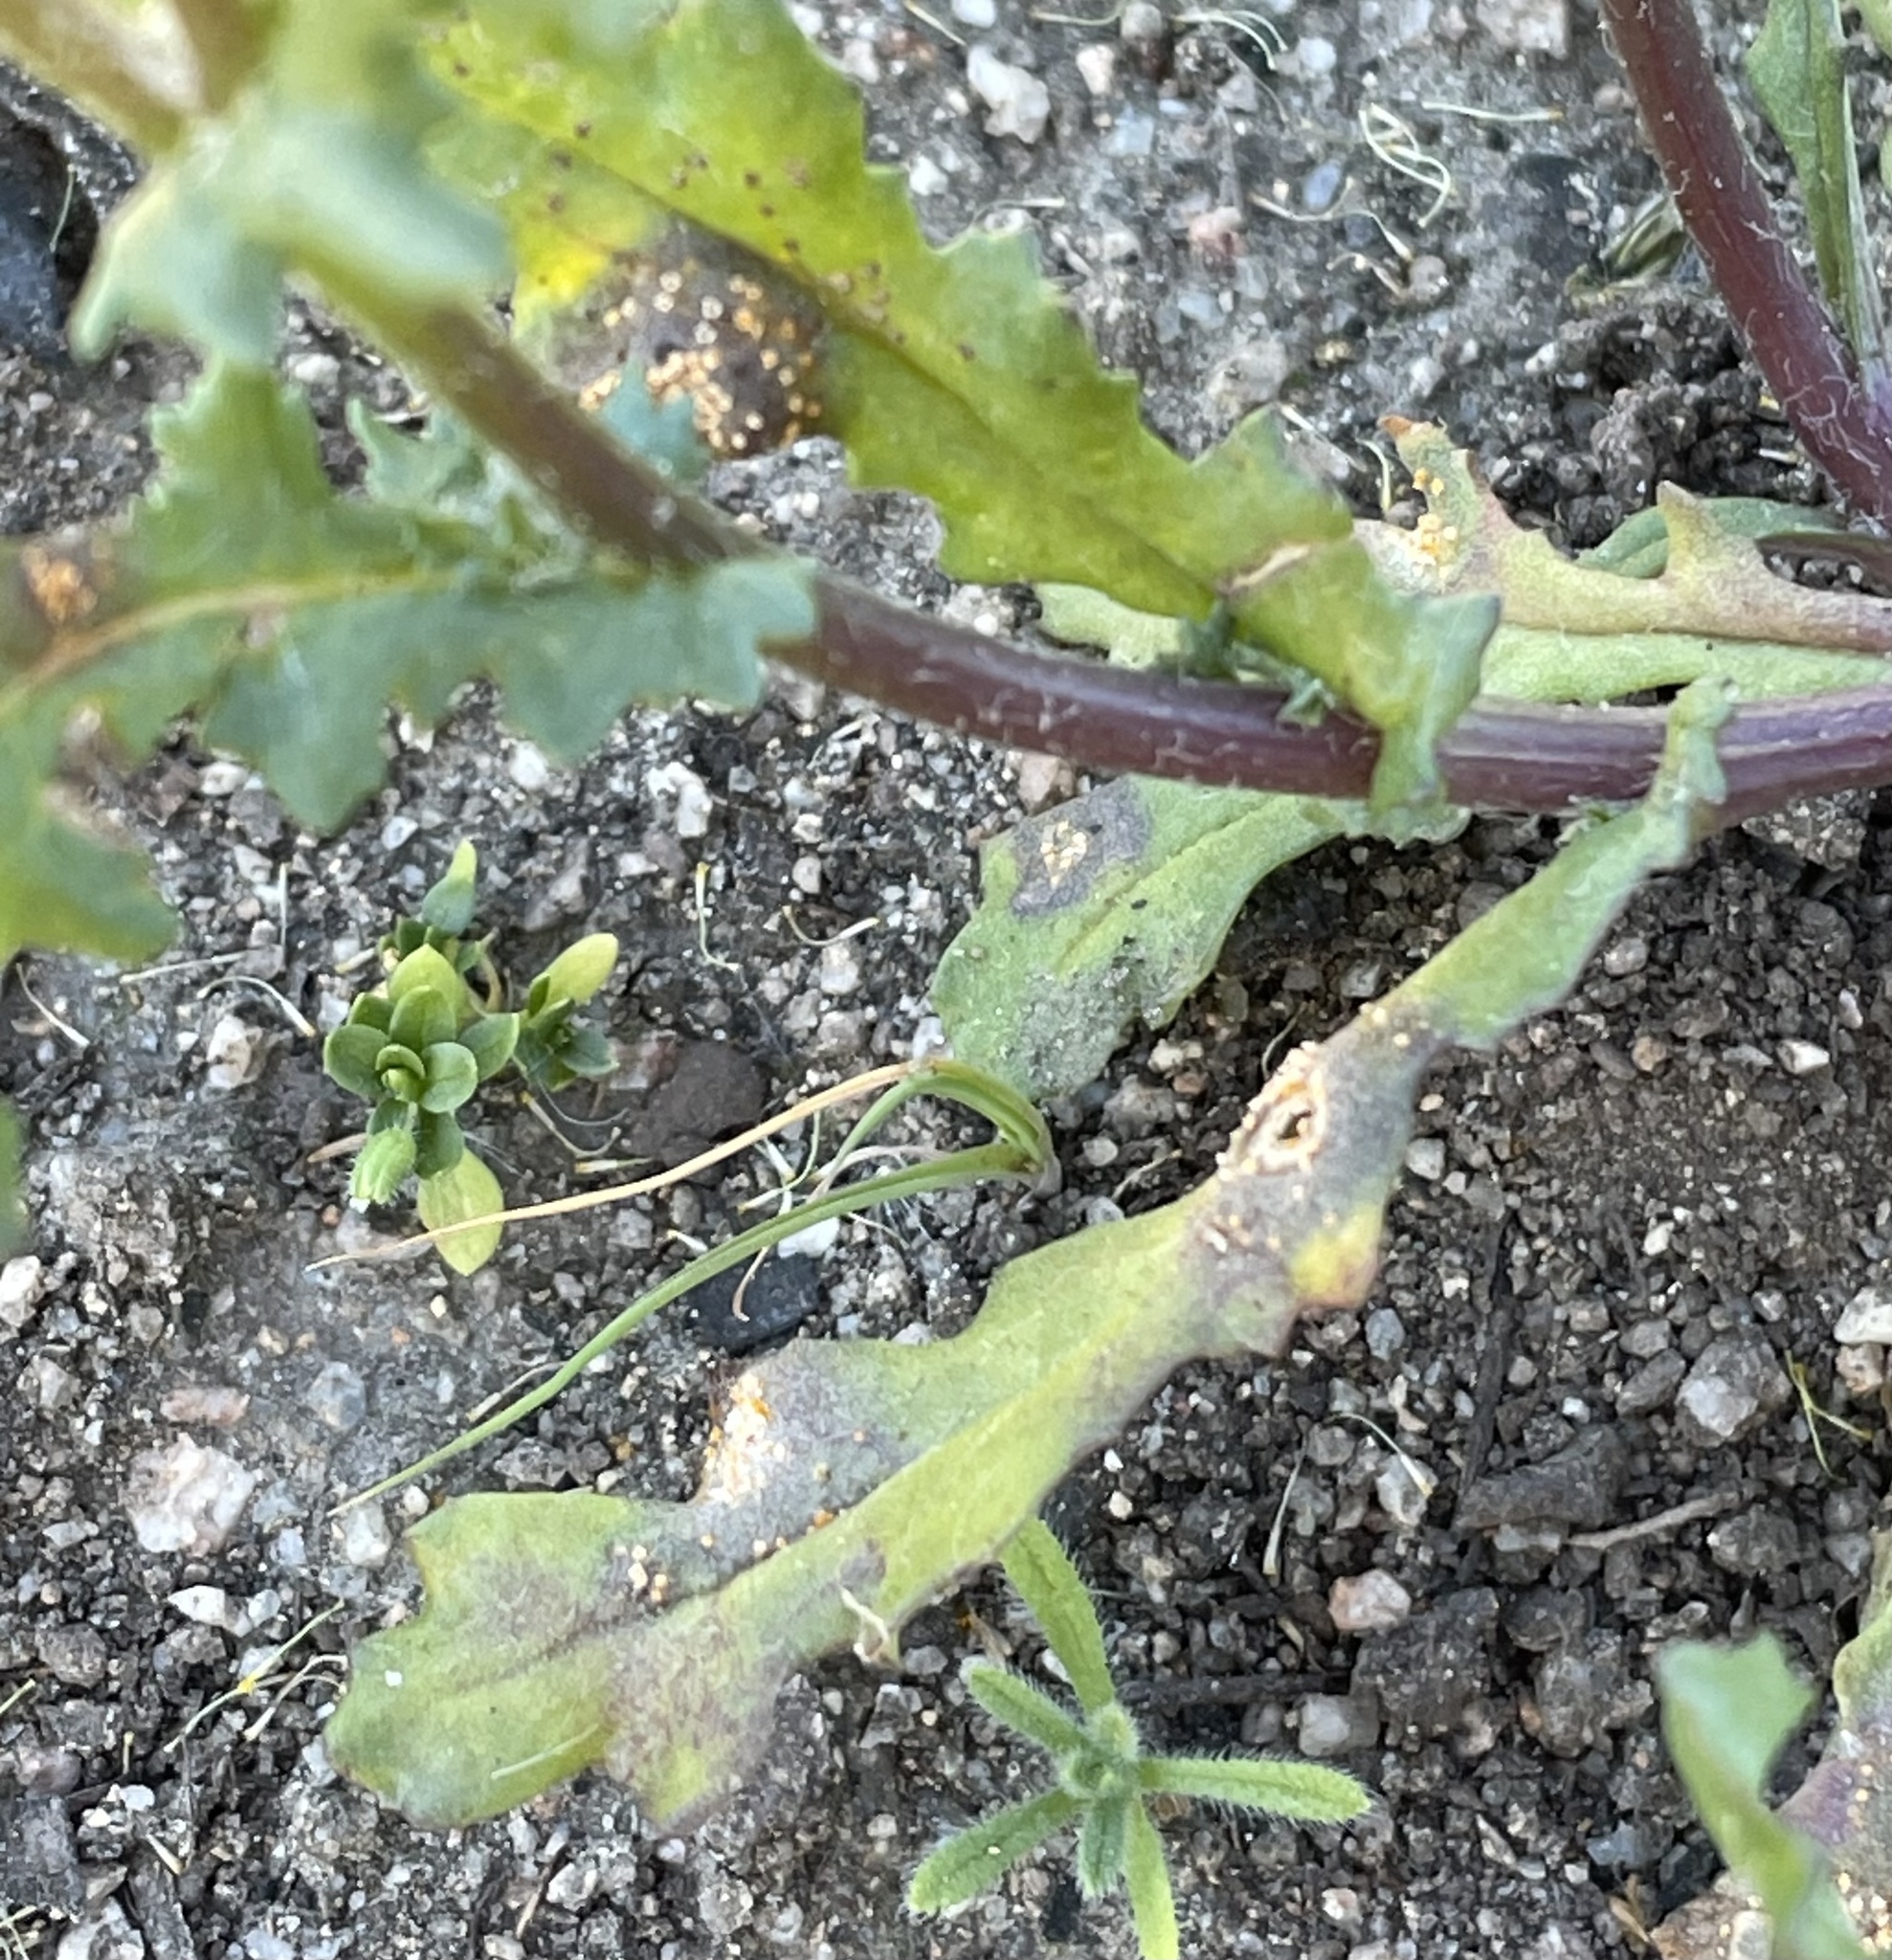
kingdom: Plantae
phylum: Tracheophyta
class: Magnoliopsida
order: Asterales
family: Asteraceae
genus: Senecio
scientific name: Senecio vulgaris
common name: Old-man-in-the-spring
